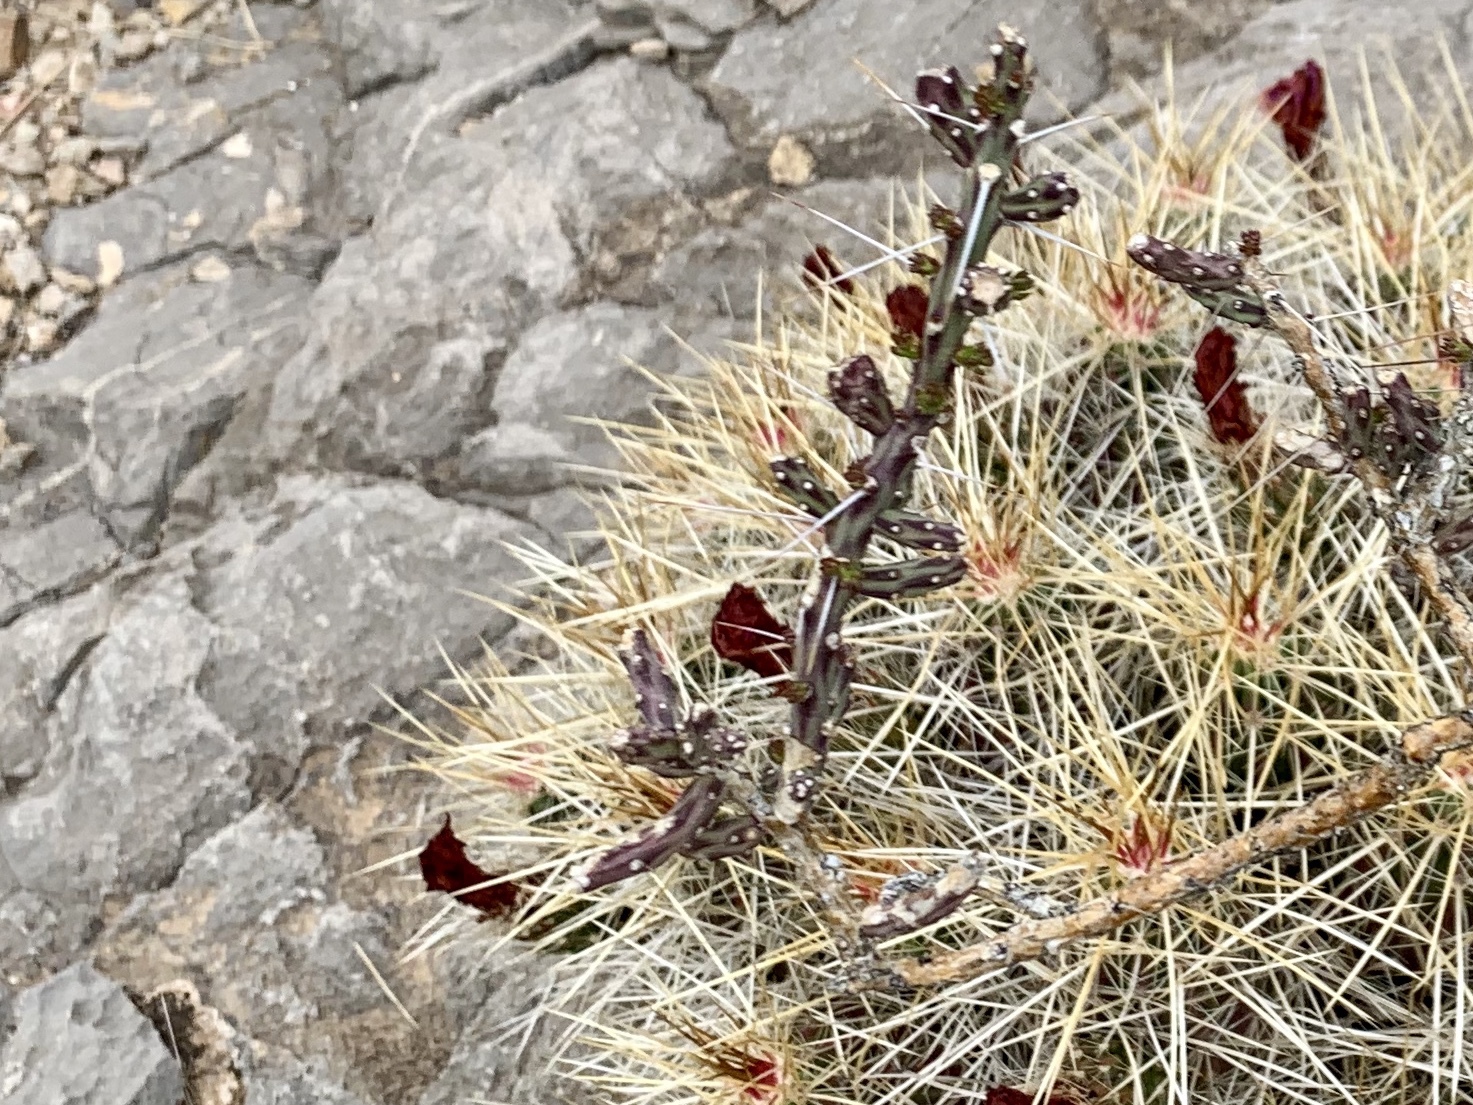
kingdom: Plantae
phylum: Tracheophyta
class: Magnoliopsida
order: Caryophyllales
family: Cactaceae
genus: Cylindropuntia
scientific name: Cylindropuntia leptocaulis
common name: Christmas cactus
